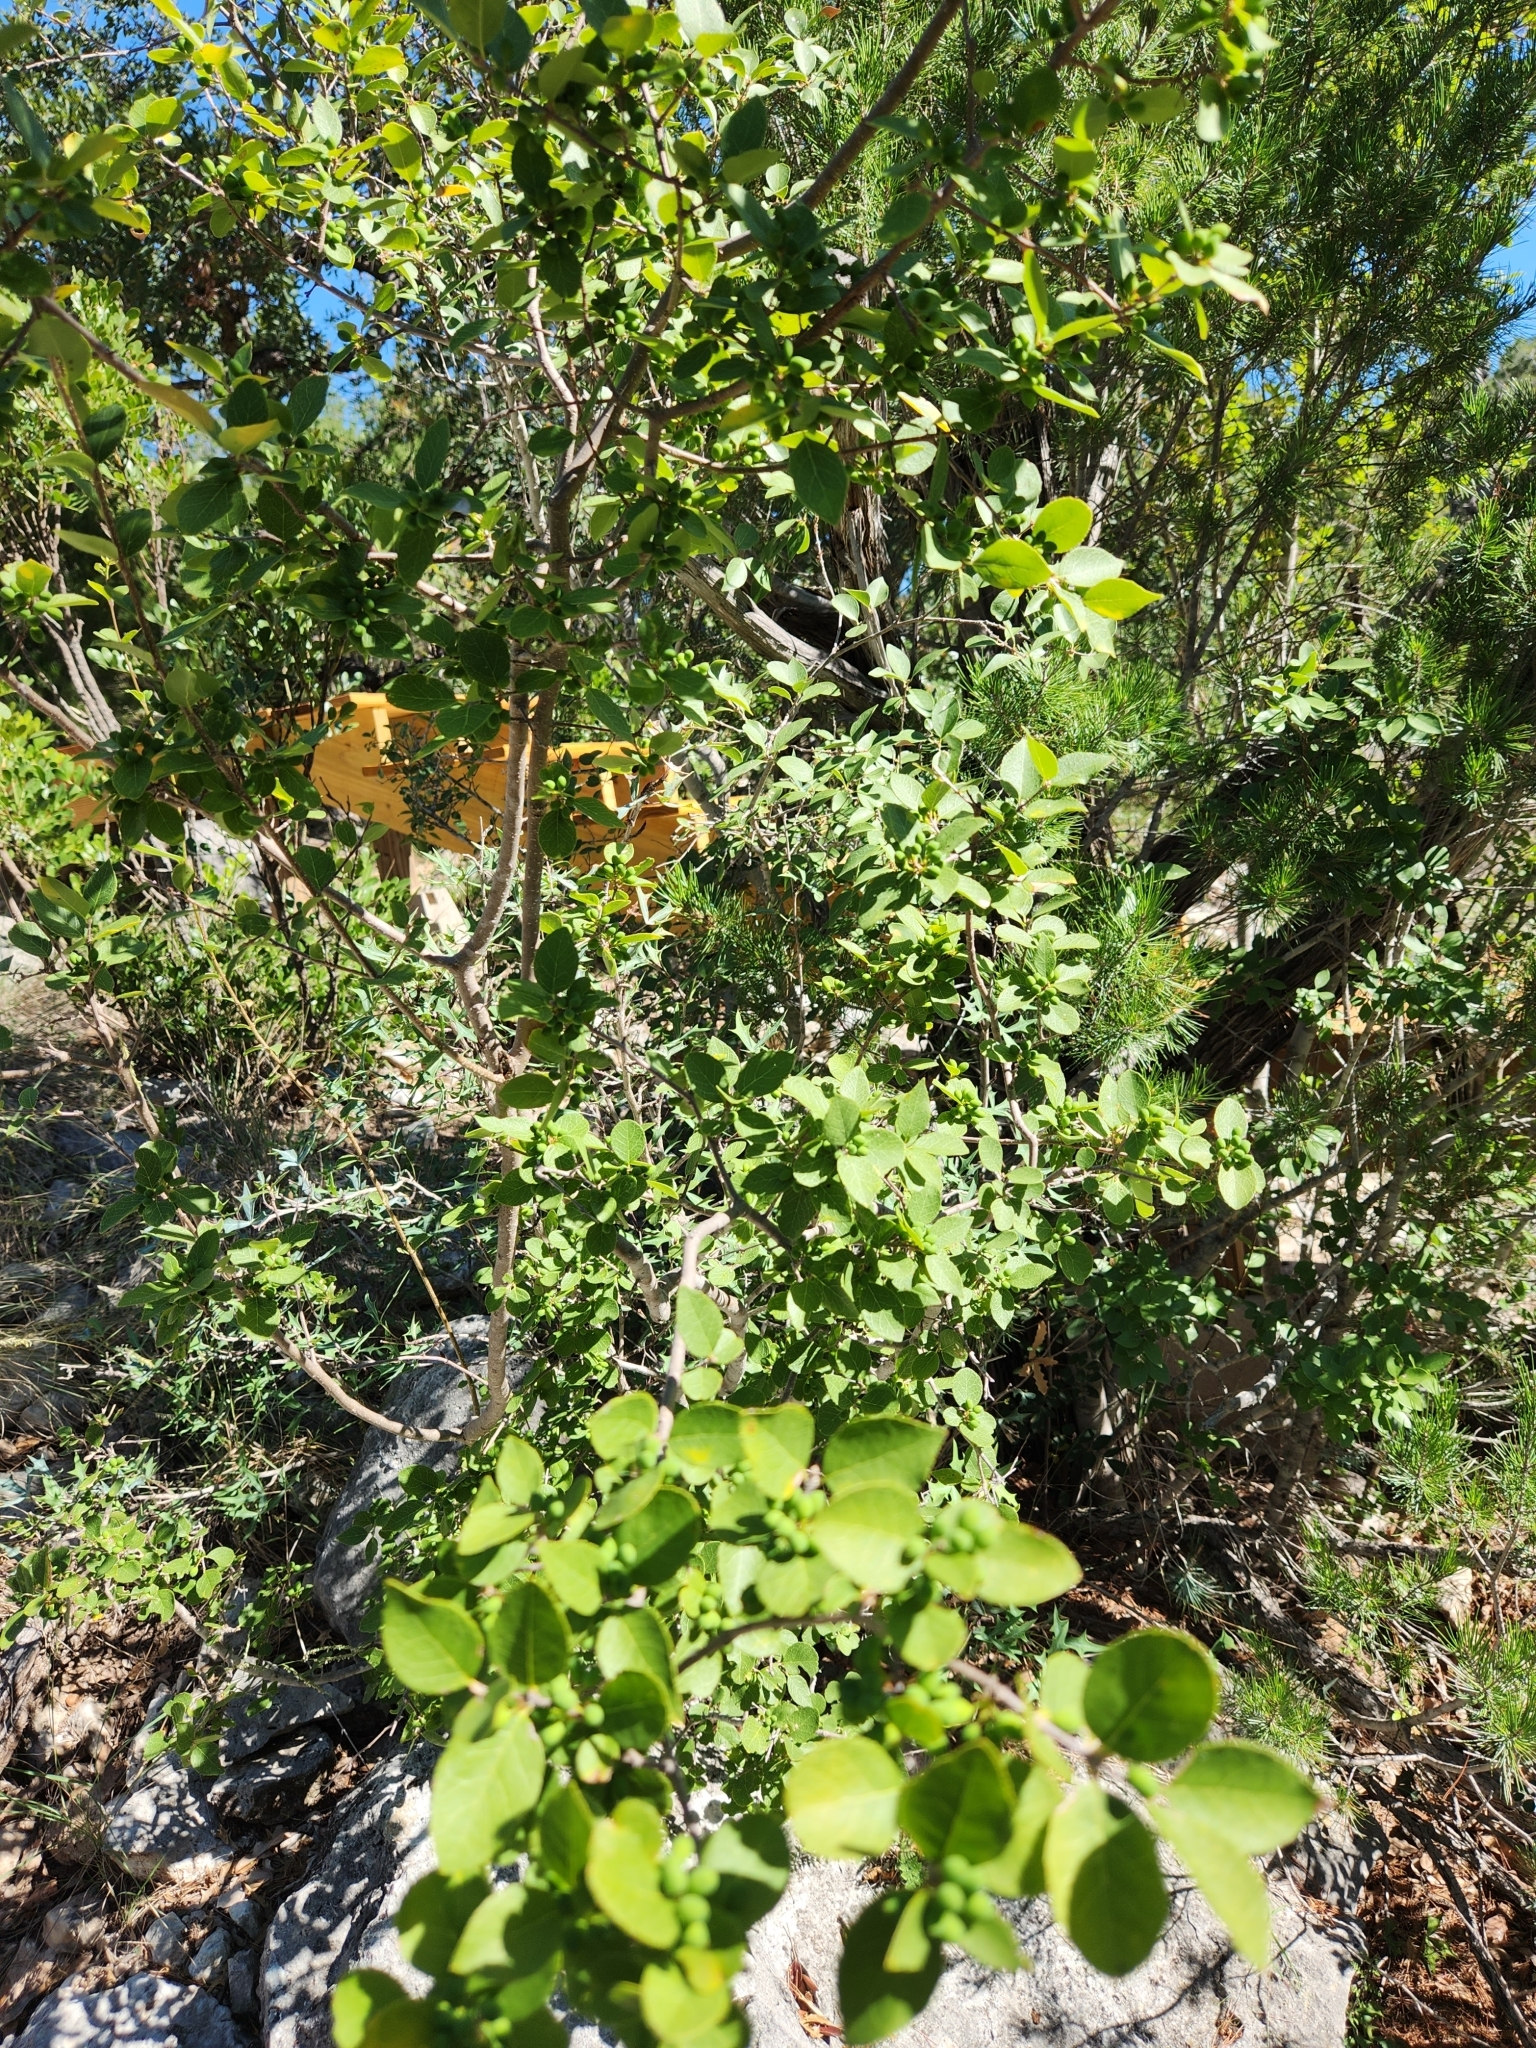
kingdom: Plantae
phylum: Tracheophyta
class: Magnoliopsida
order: Lamiales
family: Oleaceae
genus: Forestiera
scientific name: Forestiera reticulata
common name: Netleaf swamp-privet
